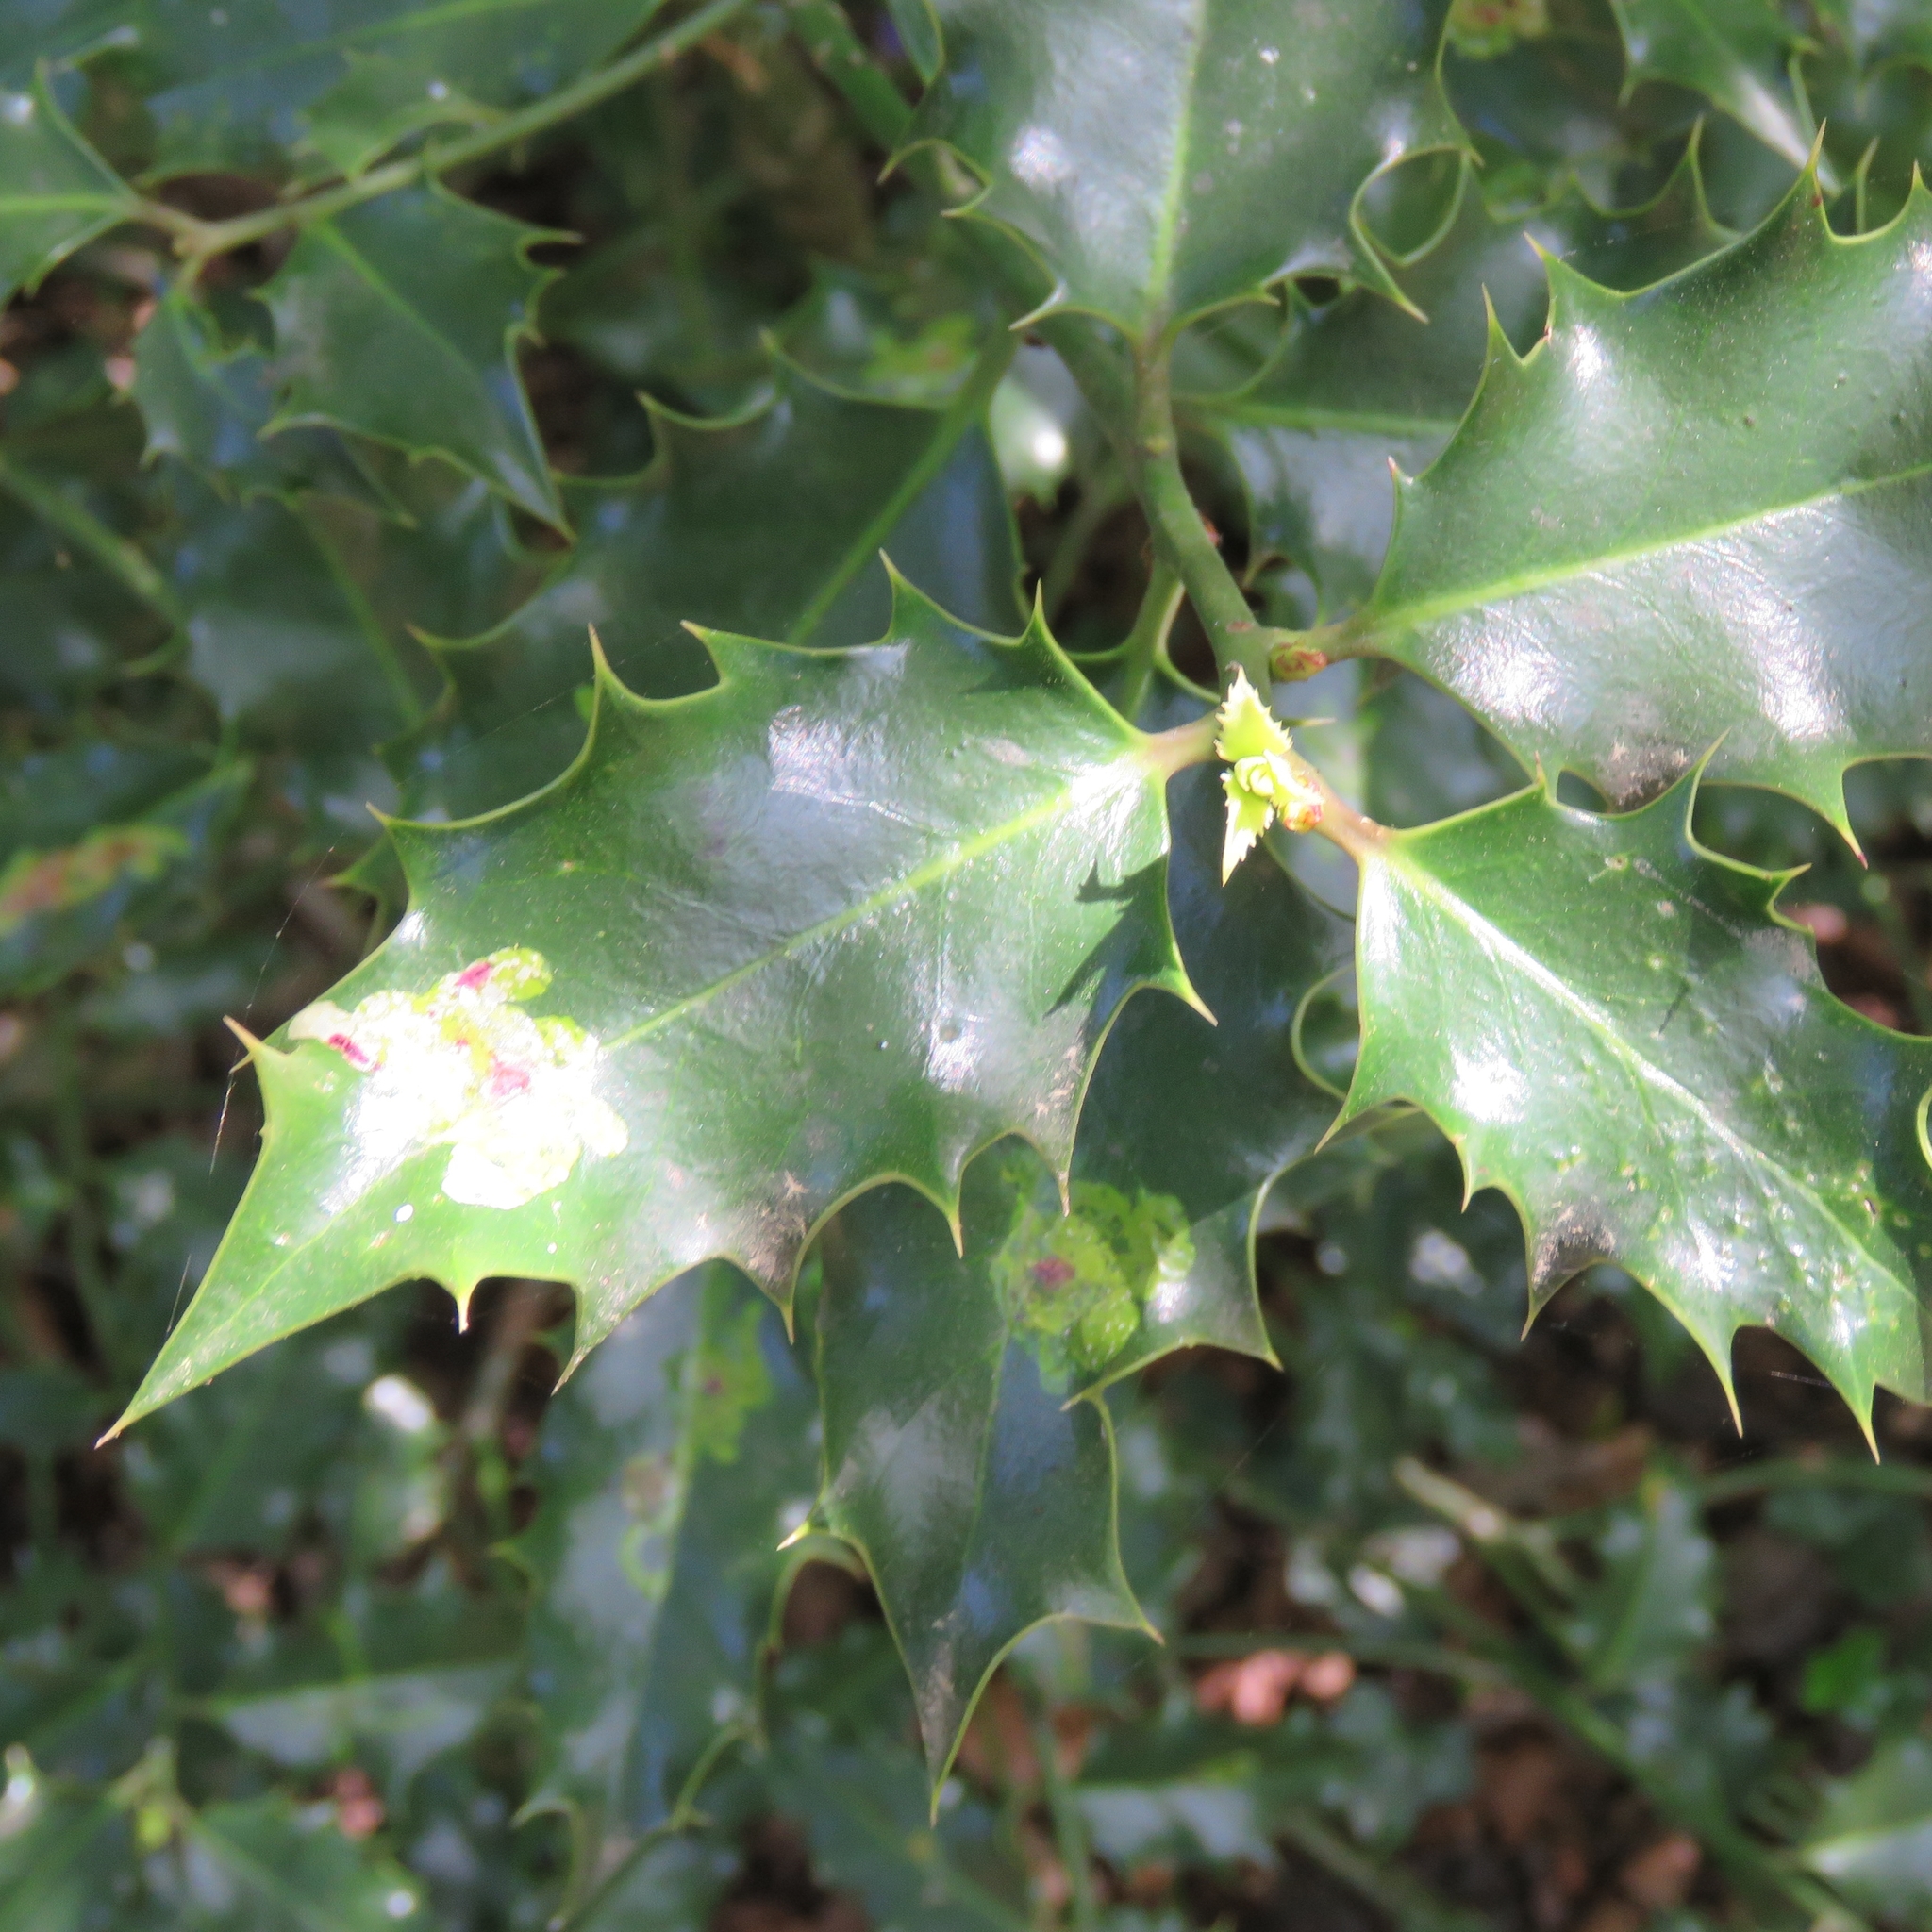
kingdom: Plantae
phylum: Tracheophyta
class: Magnoliopsida
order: Aquifoliales
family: Aquifoliaceae
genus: Ilex
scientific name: Ilex aquifolium
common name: English holly
